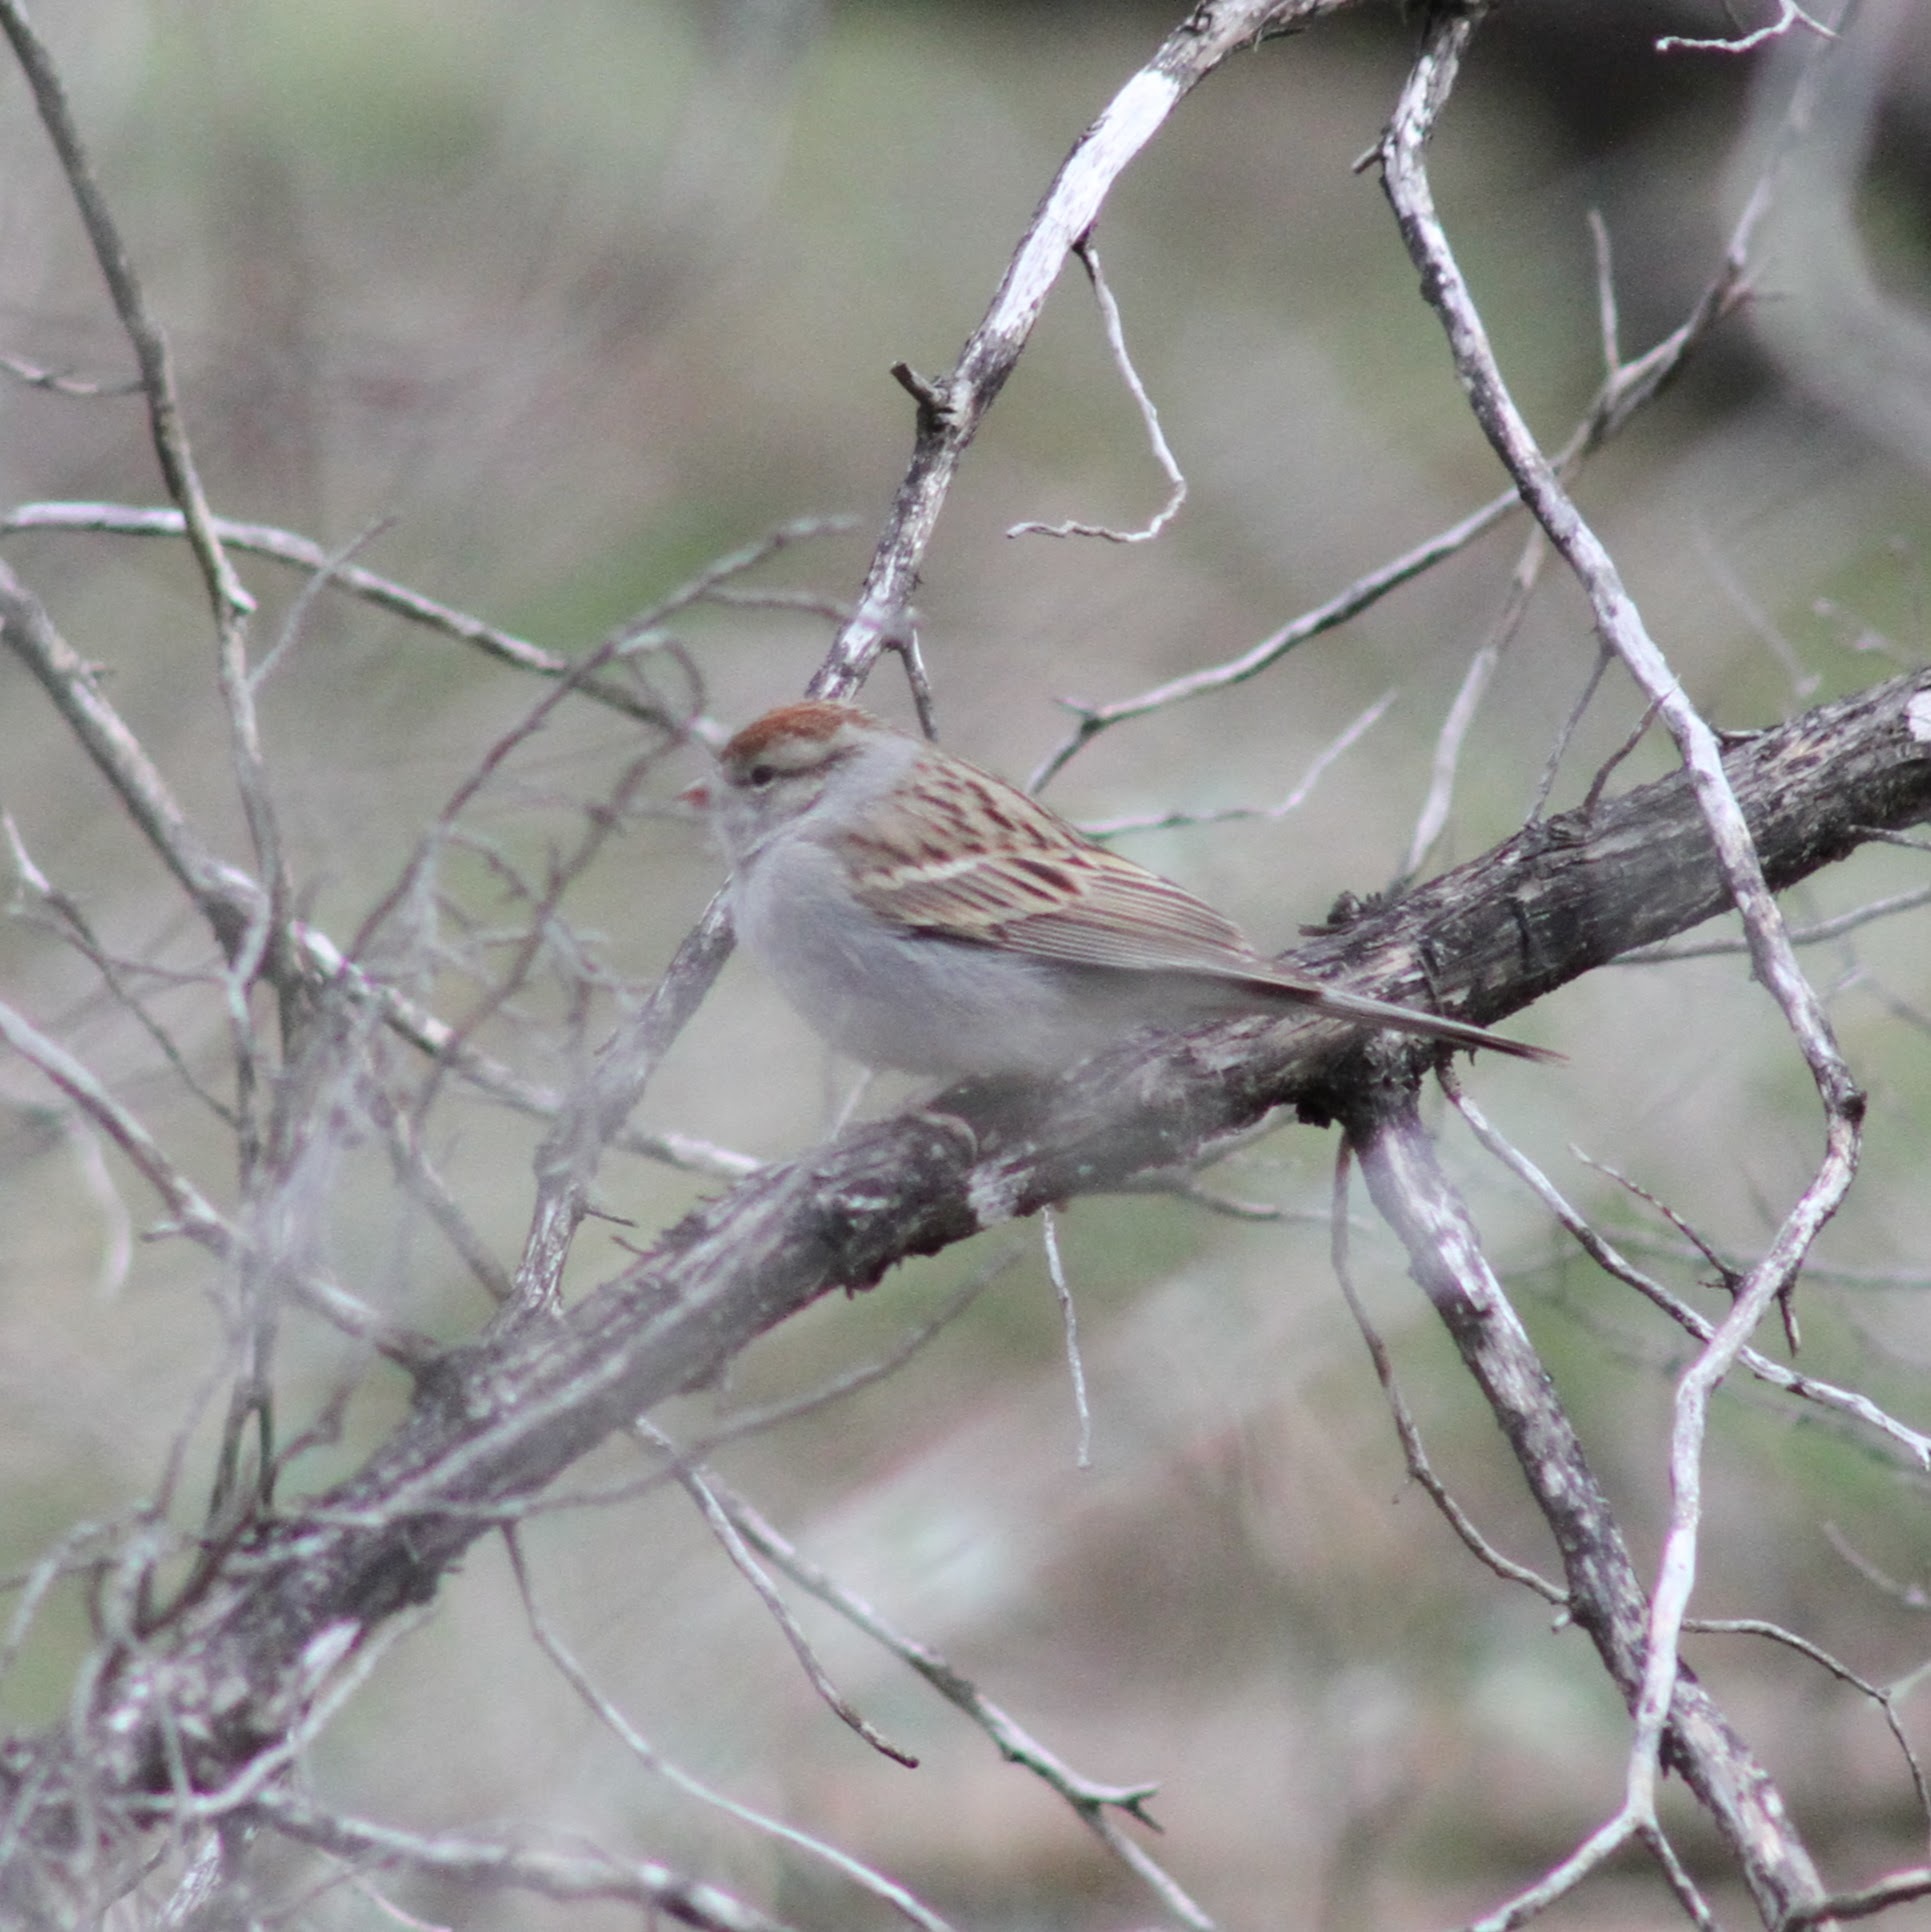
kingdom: Animalia
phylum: Chordata
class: Aves
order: Passeriformes
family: Passerellidae
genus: Spizella
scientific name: Spizella passerina
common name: Chipping sparrow
